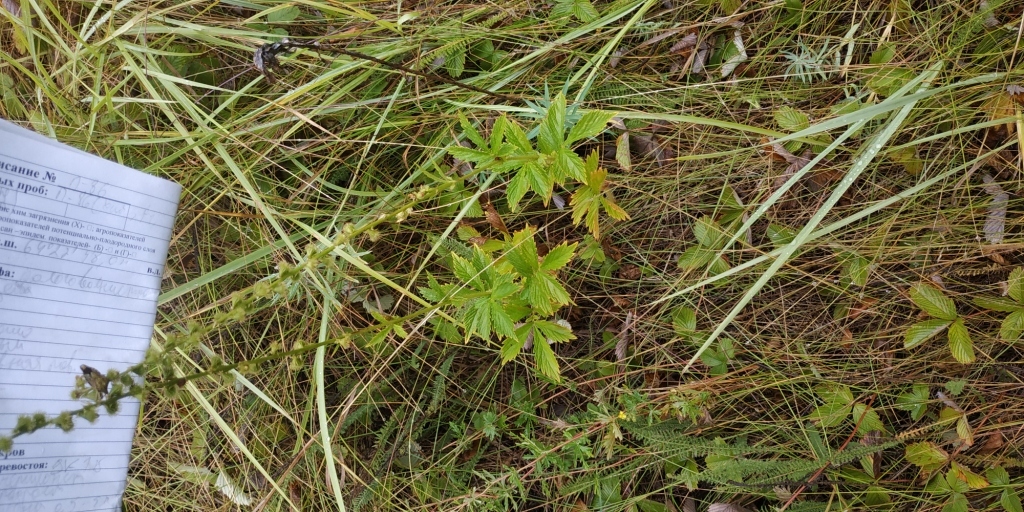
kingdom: Plantae
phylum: Tracheophyta
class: Magnoliopsida
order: Rosales
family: Rosaceae
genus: Agrimonia
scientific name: Agrimonia pilosa
